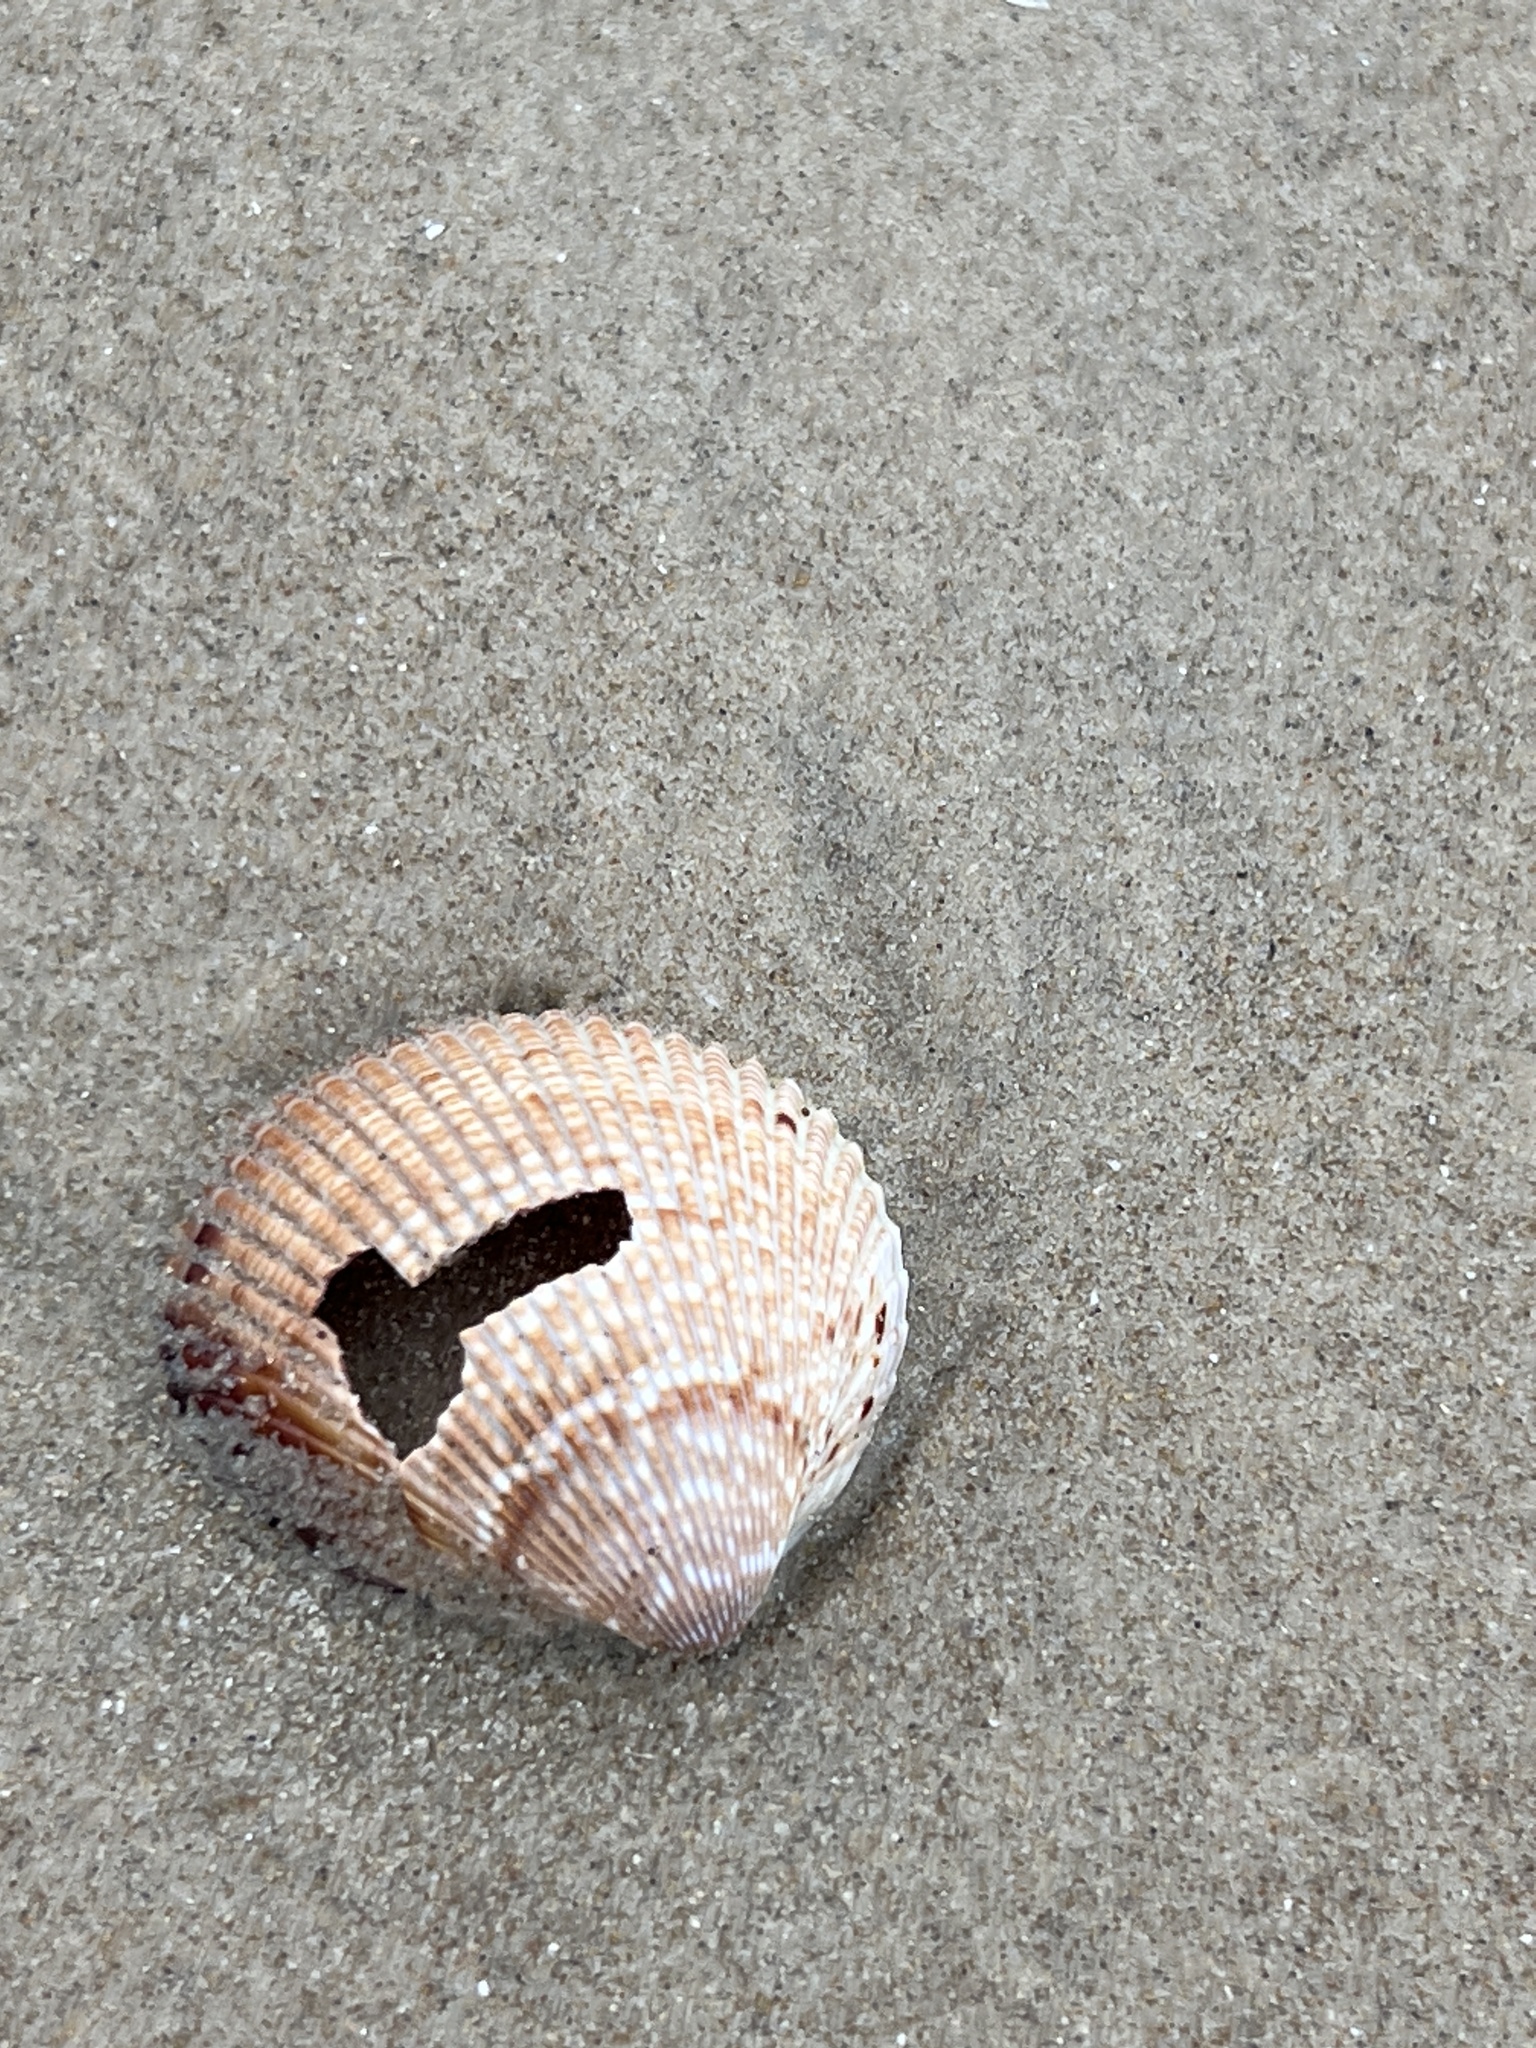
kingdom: Animalia
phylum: Mollusca
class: Bivalvia
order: Cardiida
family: Cardiidae
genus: Dinocardium
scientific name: Dinocardium robustum
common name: Atlantic giant cockle
